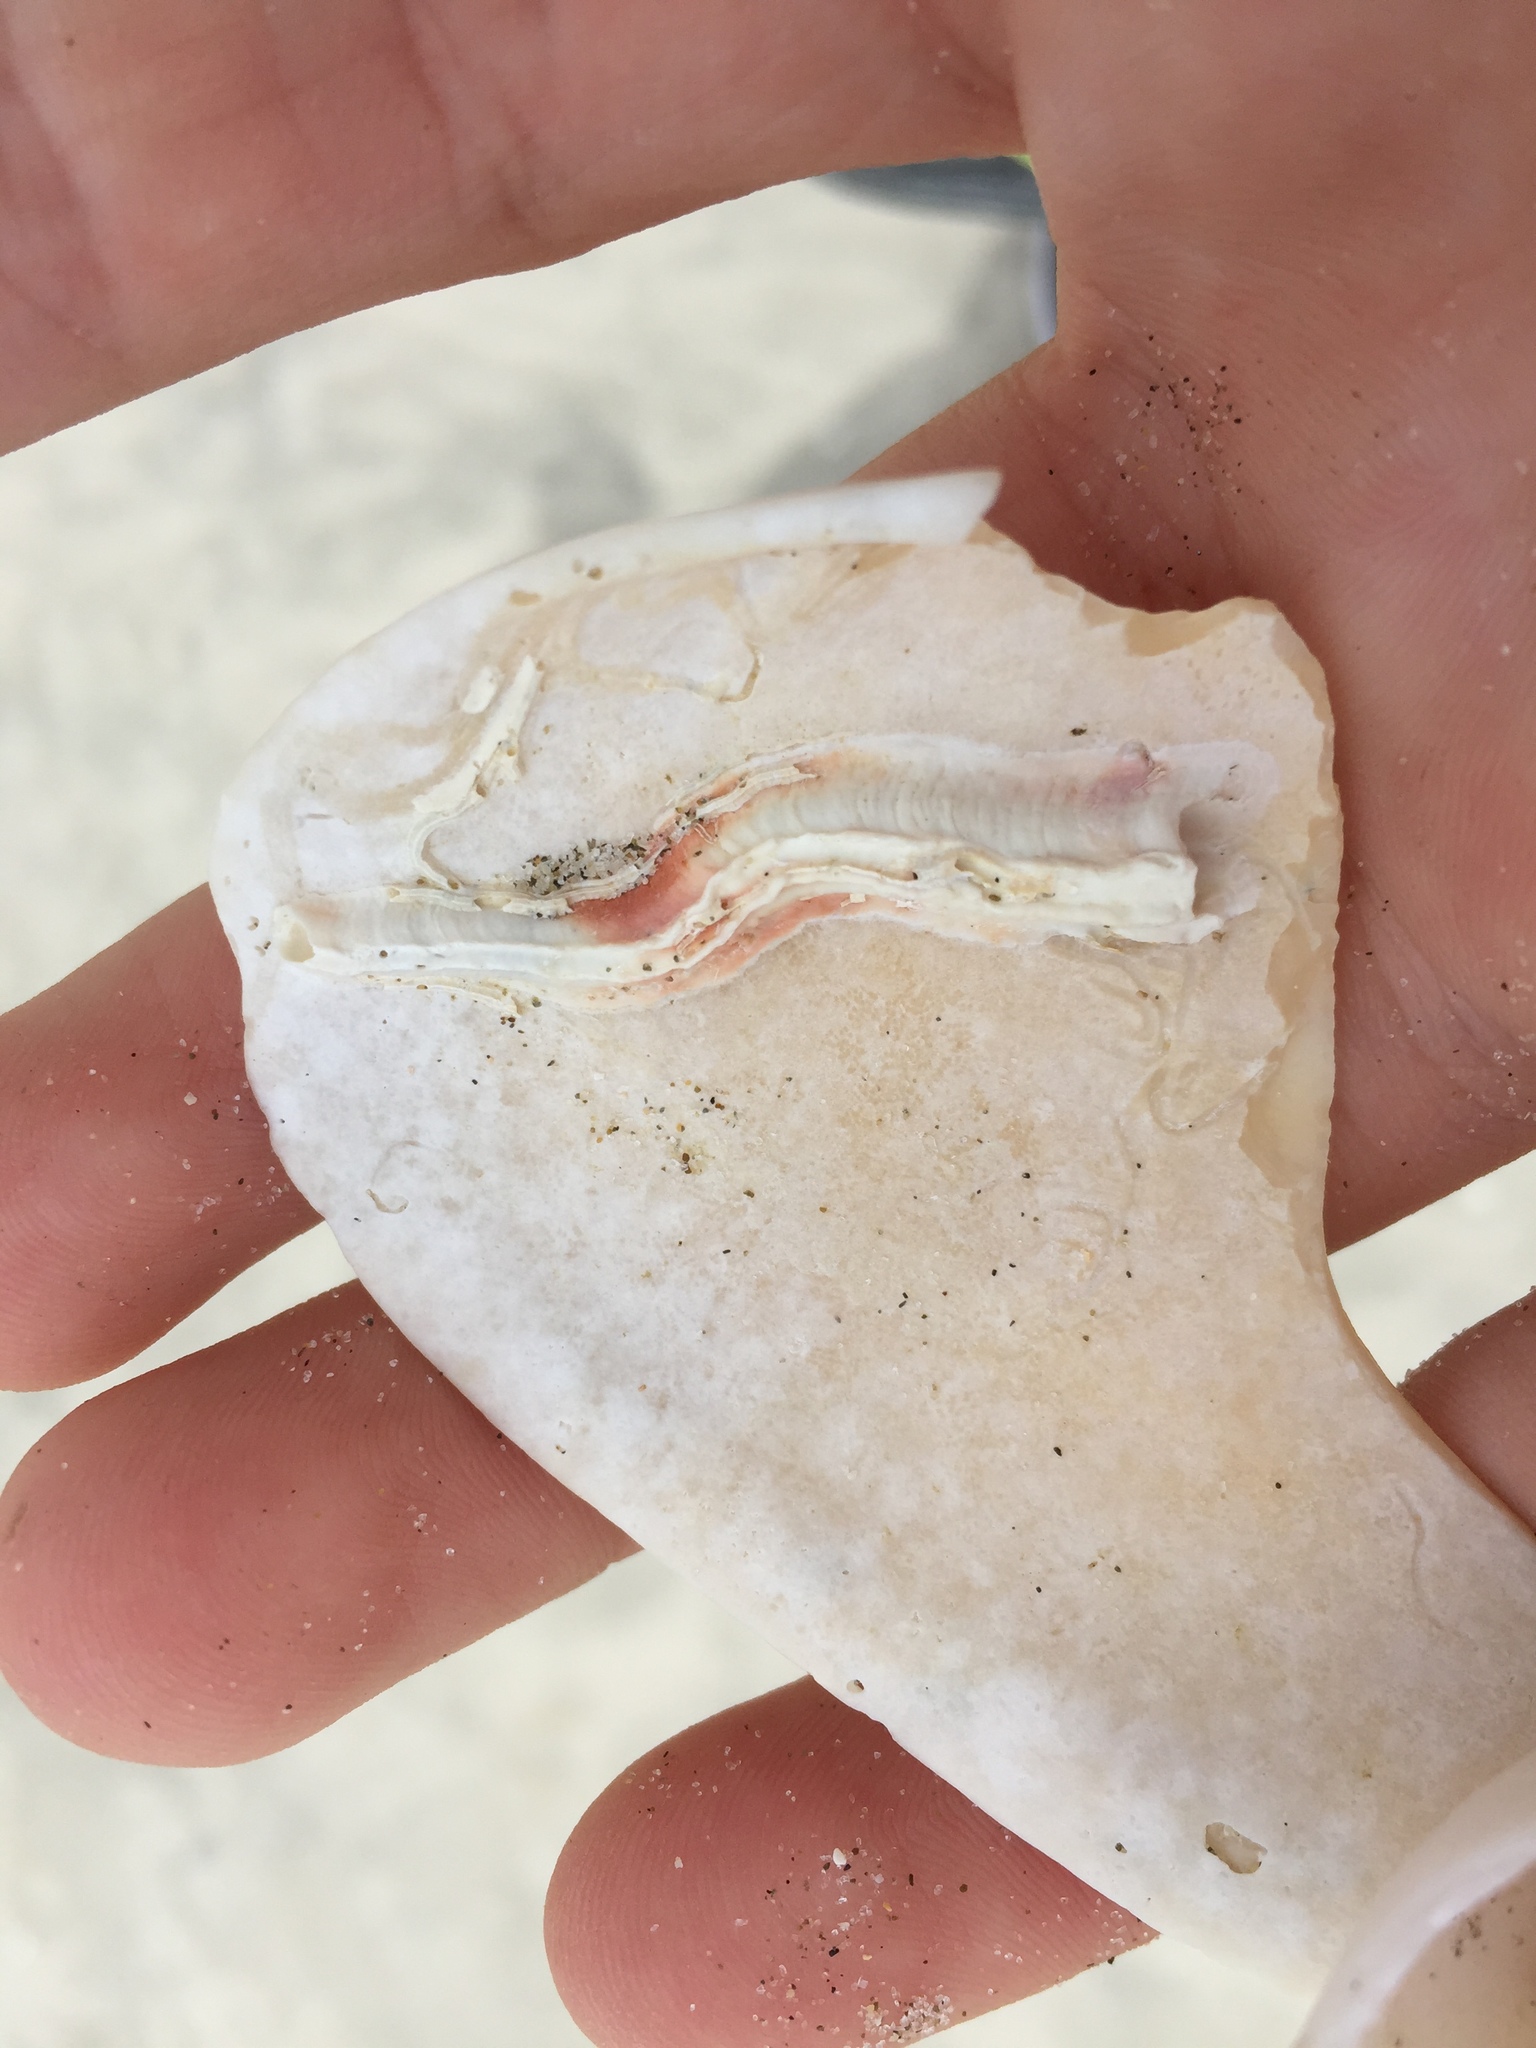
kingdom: Animalia
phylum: Annelida
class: Polychaeta
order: Sabellida
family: Serpulidae
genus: Galeolaria
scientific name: Galeolaria
